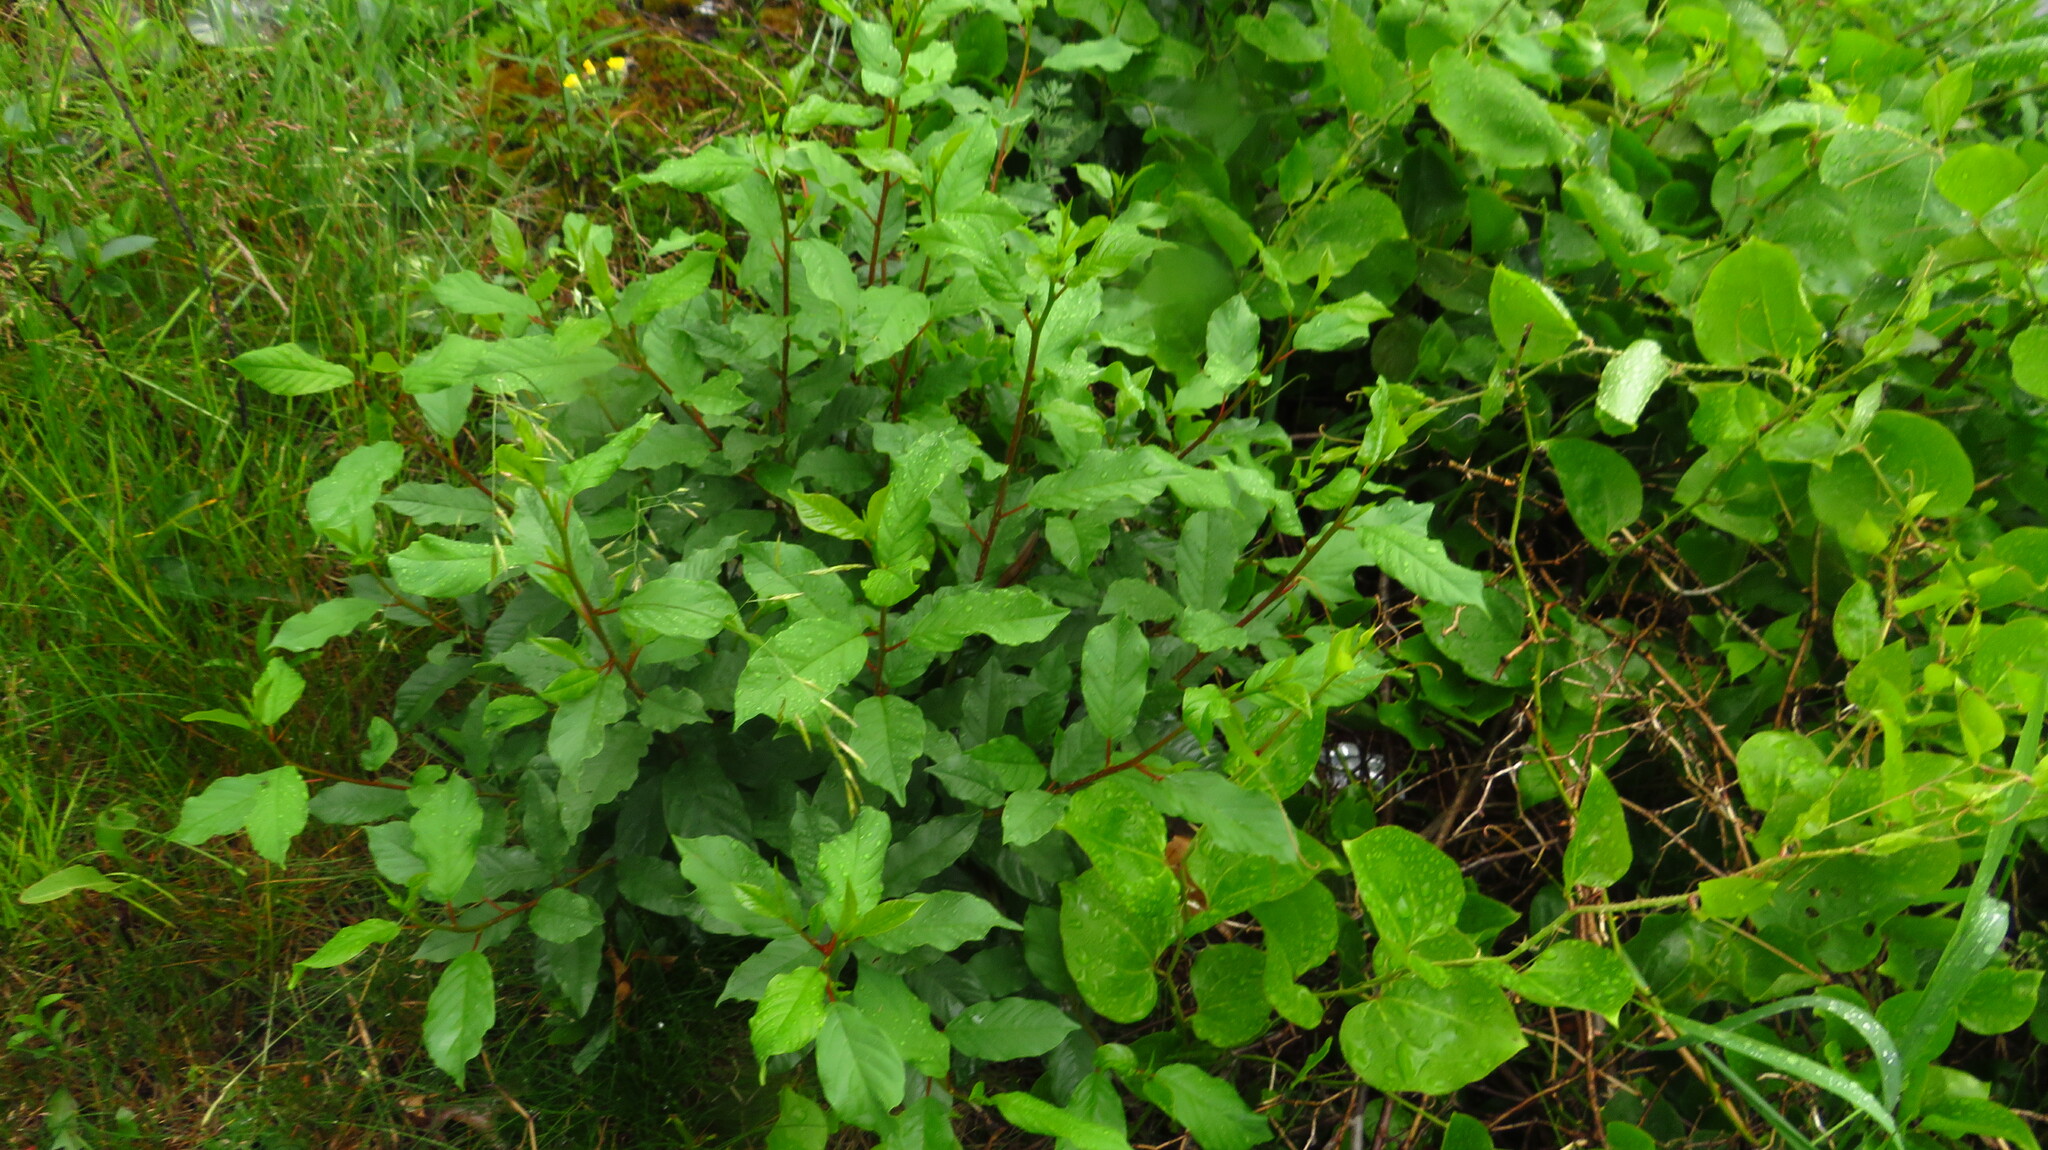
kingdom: Plantae
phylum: Tracheophyta
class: Magnoliopsida
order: Rosales
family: Rhamnaceae
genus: Frangula
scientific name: Frangula alnus
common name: Alder buckthorn
